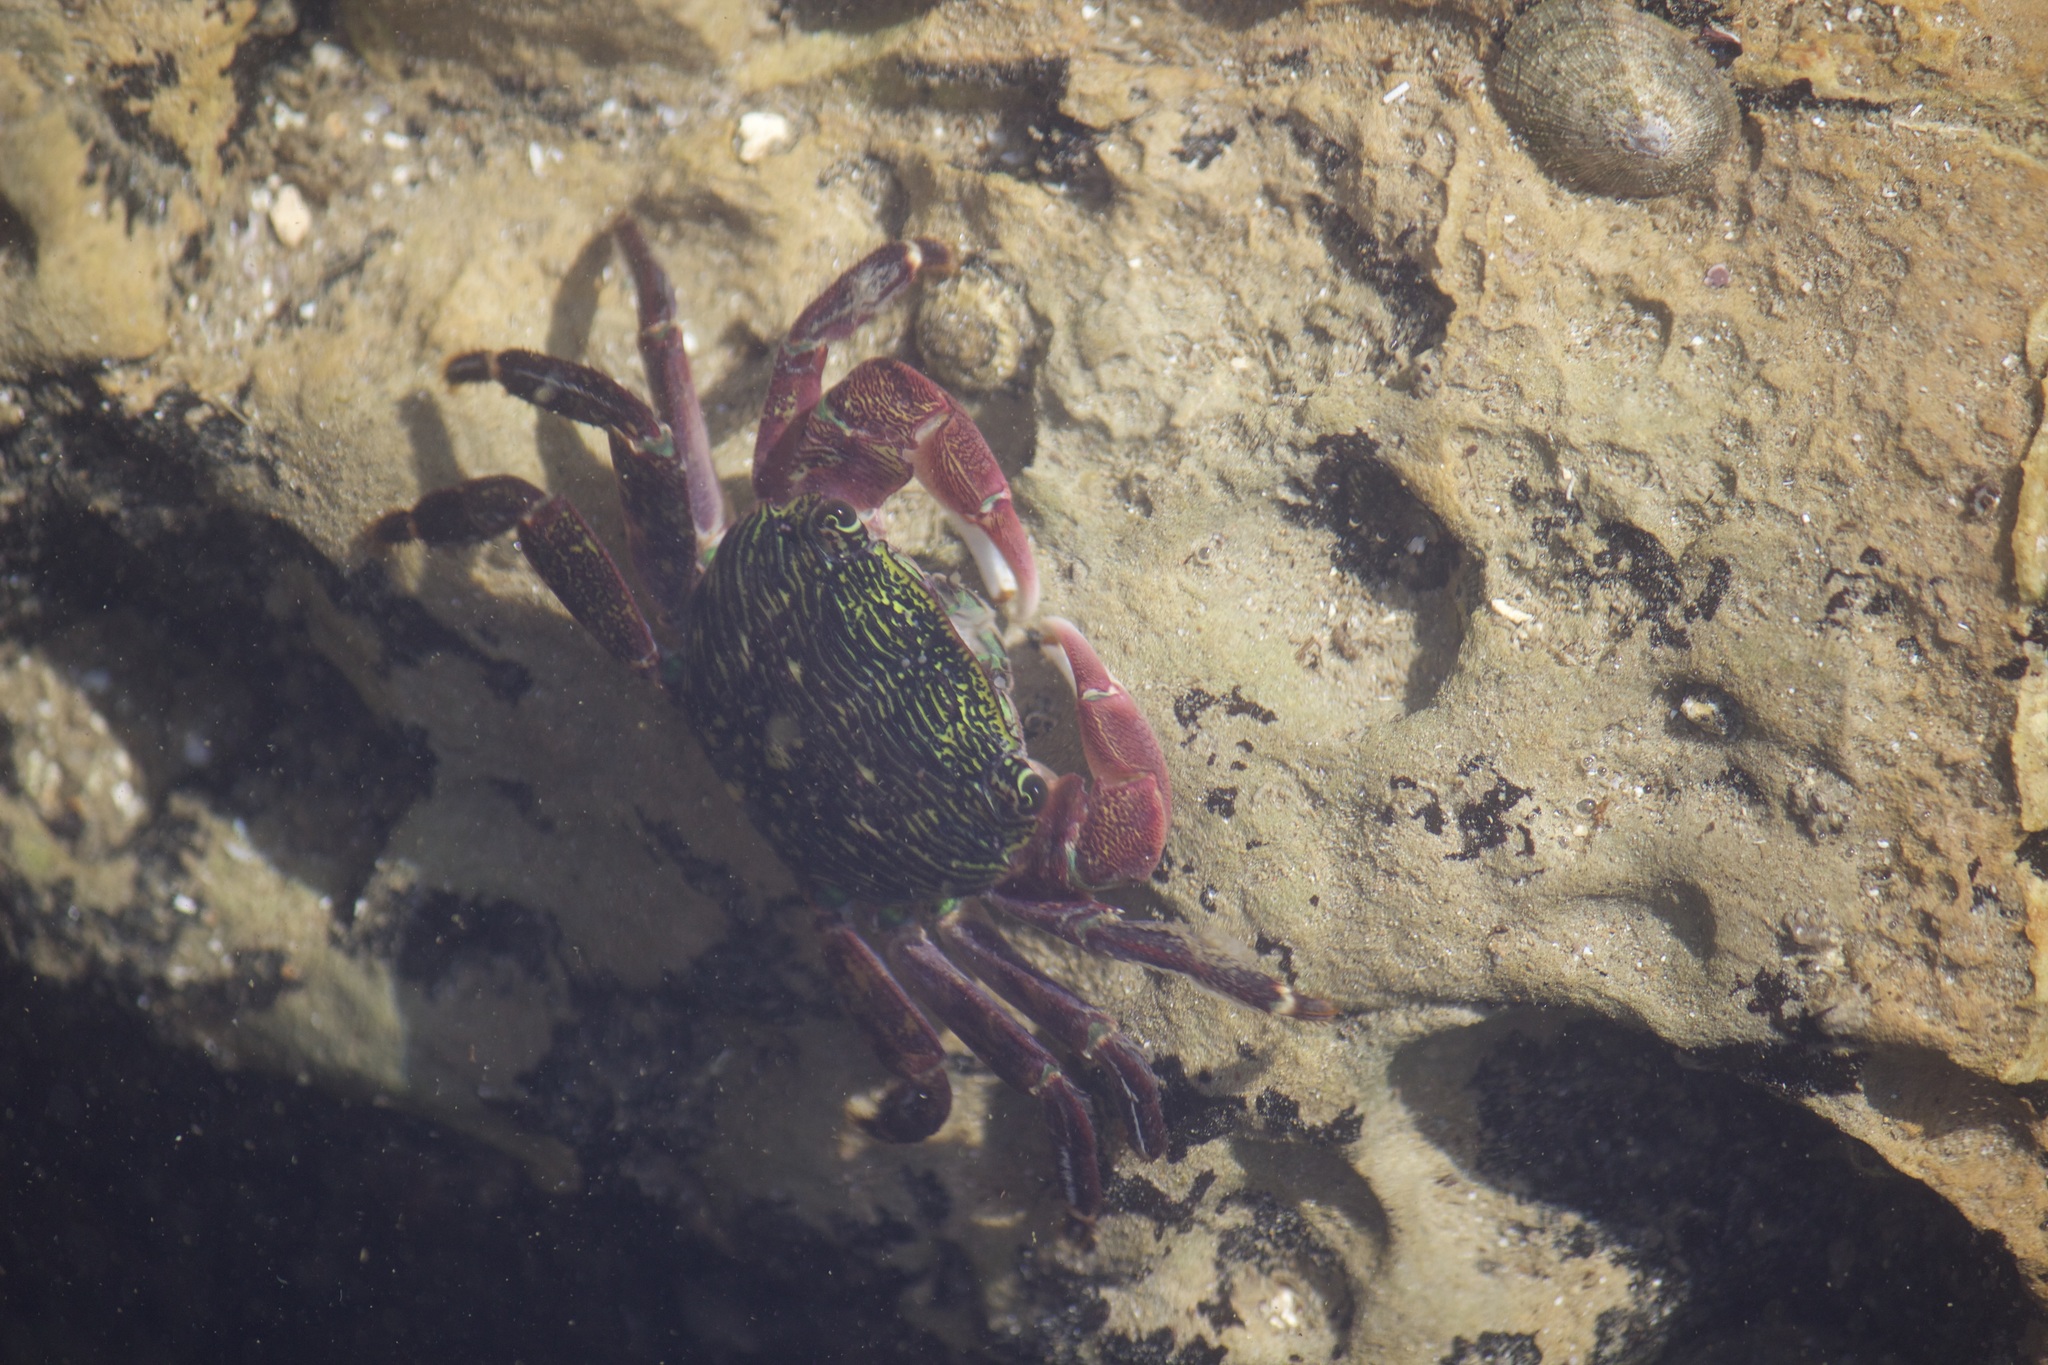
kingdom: Animalia
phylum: Arthropoda
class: Malacostraca
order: Decapoda
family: Grapsidae
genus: Pachygrapsus
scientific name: Pachygrapsus crassipes
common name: Striped shore crab
